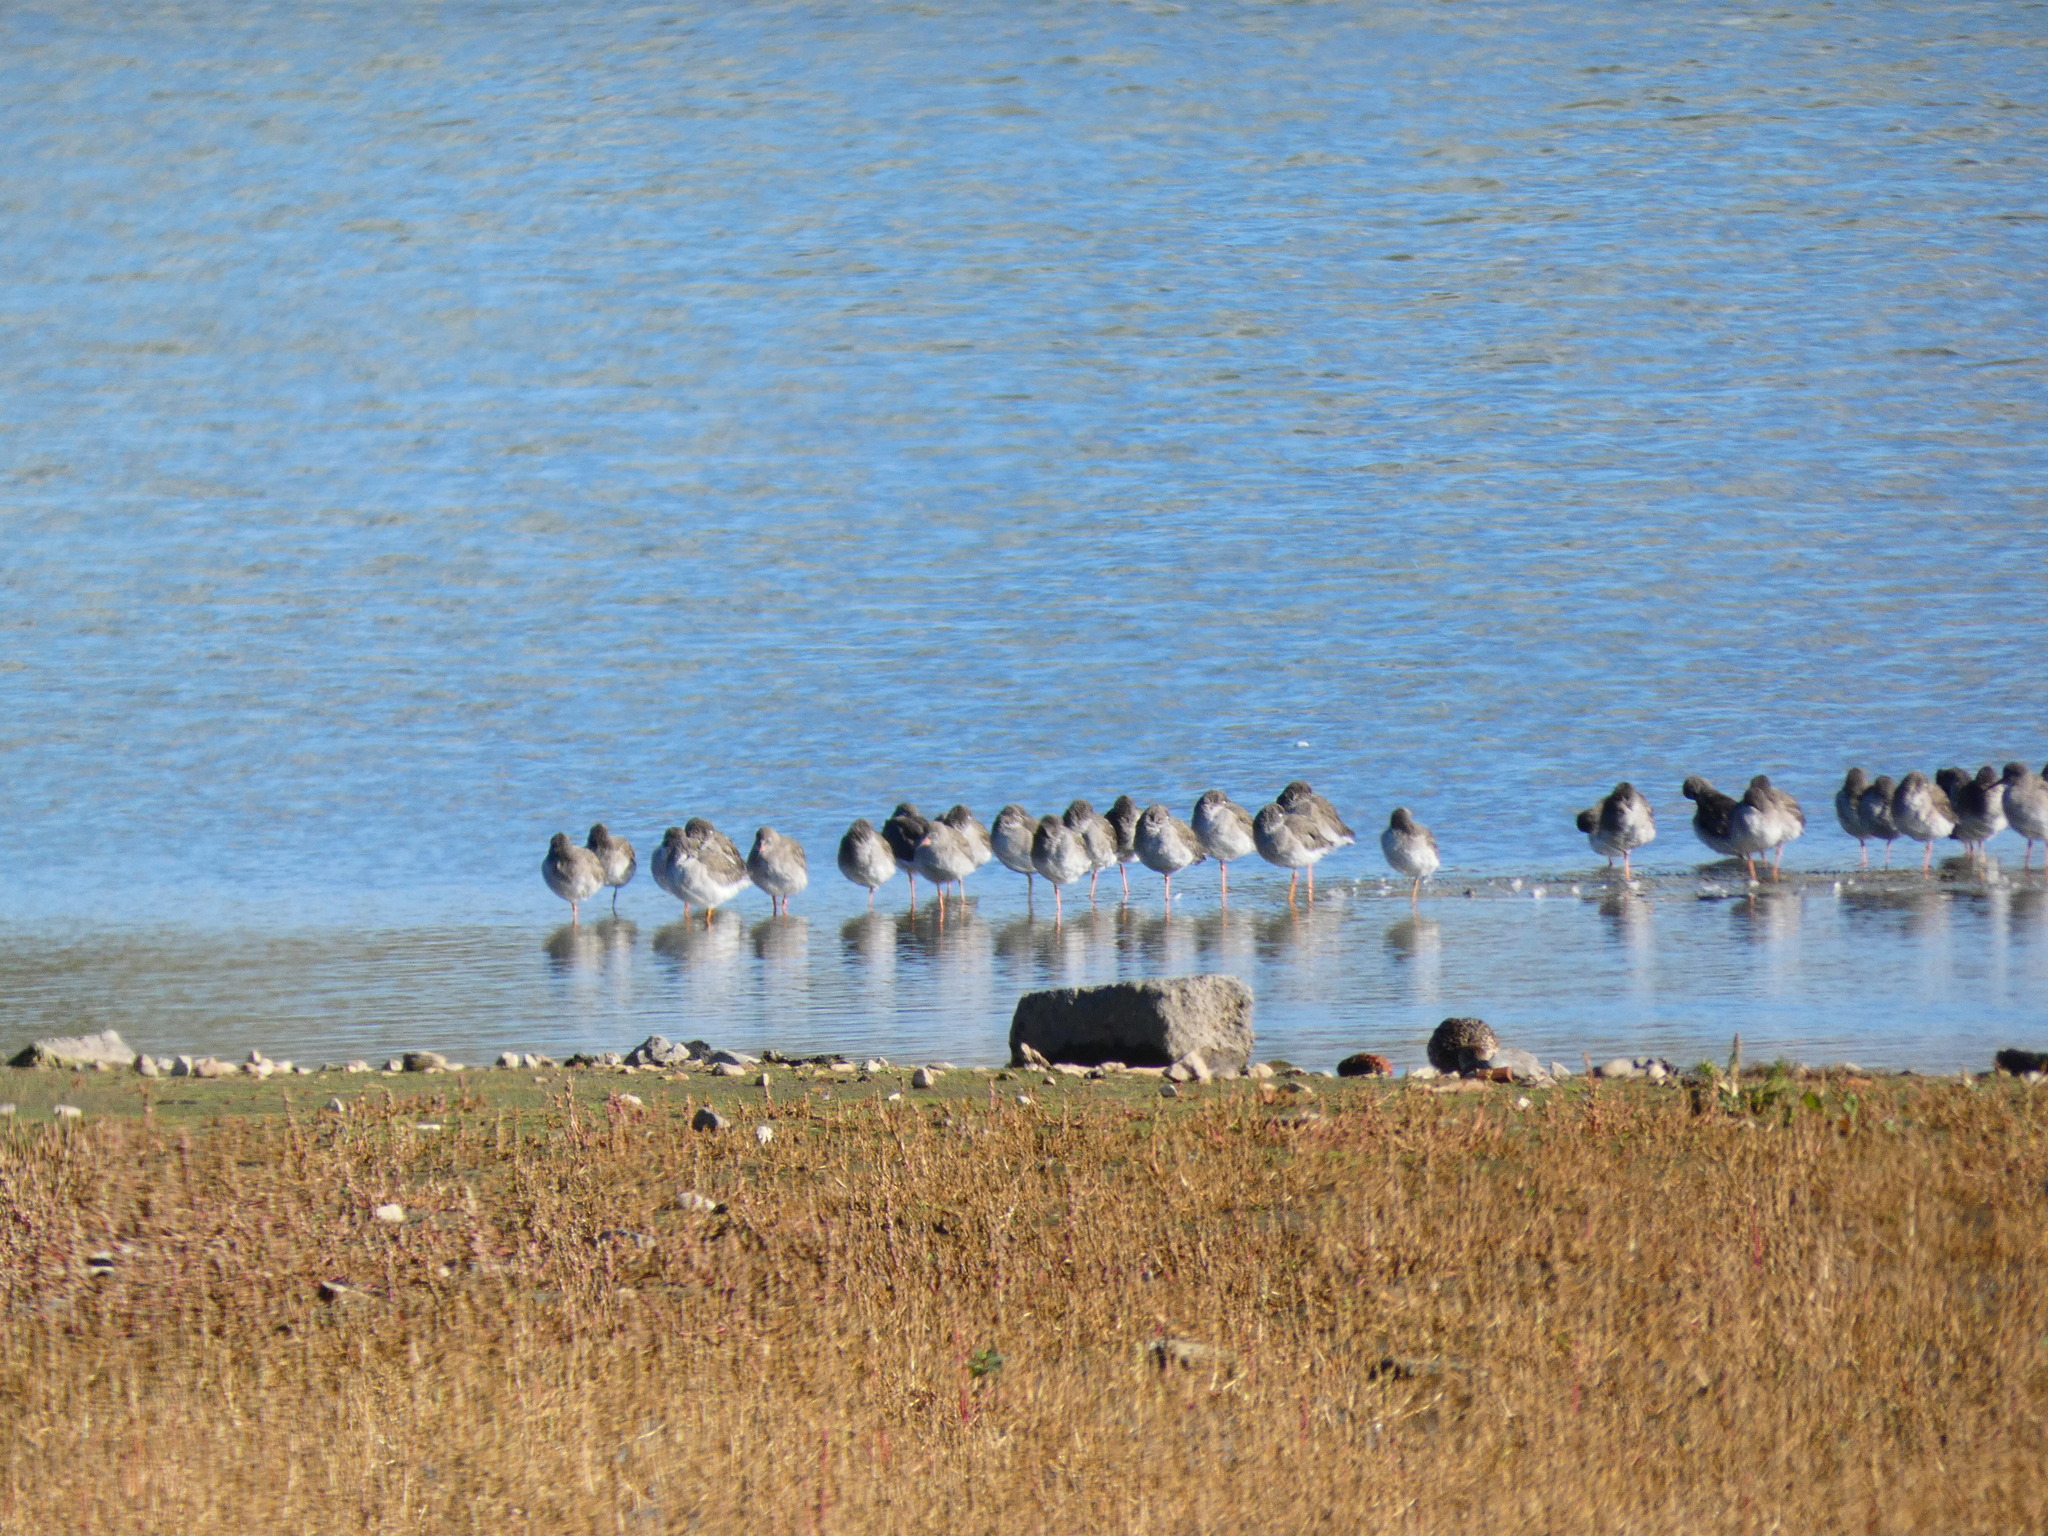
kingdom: Animalia
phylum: Chordata
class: Aves
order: Charadriiformes
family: Scolopacidae
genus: Tringa
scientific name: Tringa totanus
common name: Common redshank
